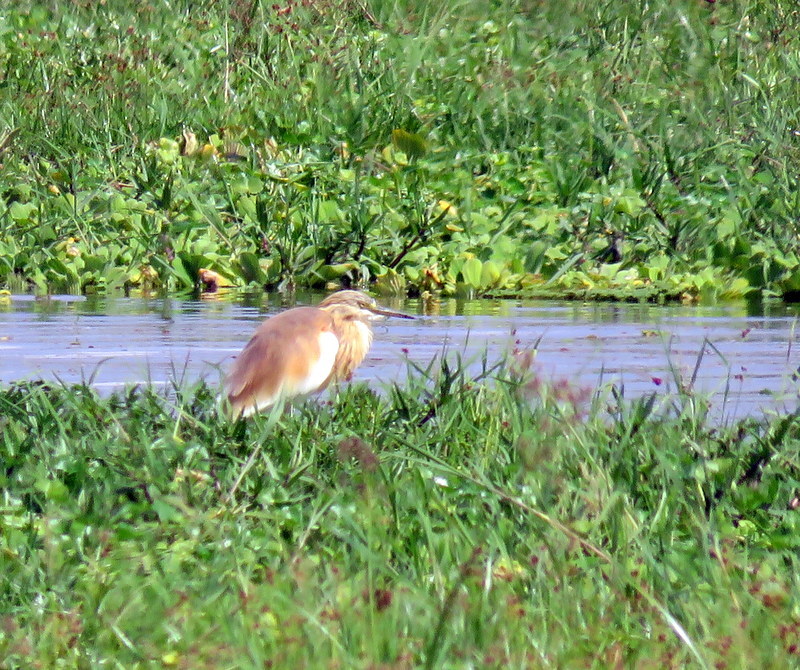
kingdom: Animalia
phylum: Chordata
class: Aves
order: Pelecaniformes
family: Ardeidae
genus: Ardeola
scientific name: Ardeola ralloides
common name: Squacco heron
